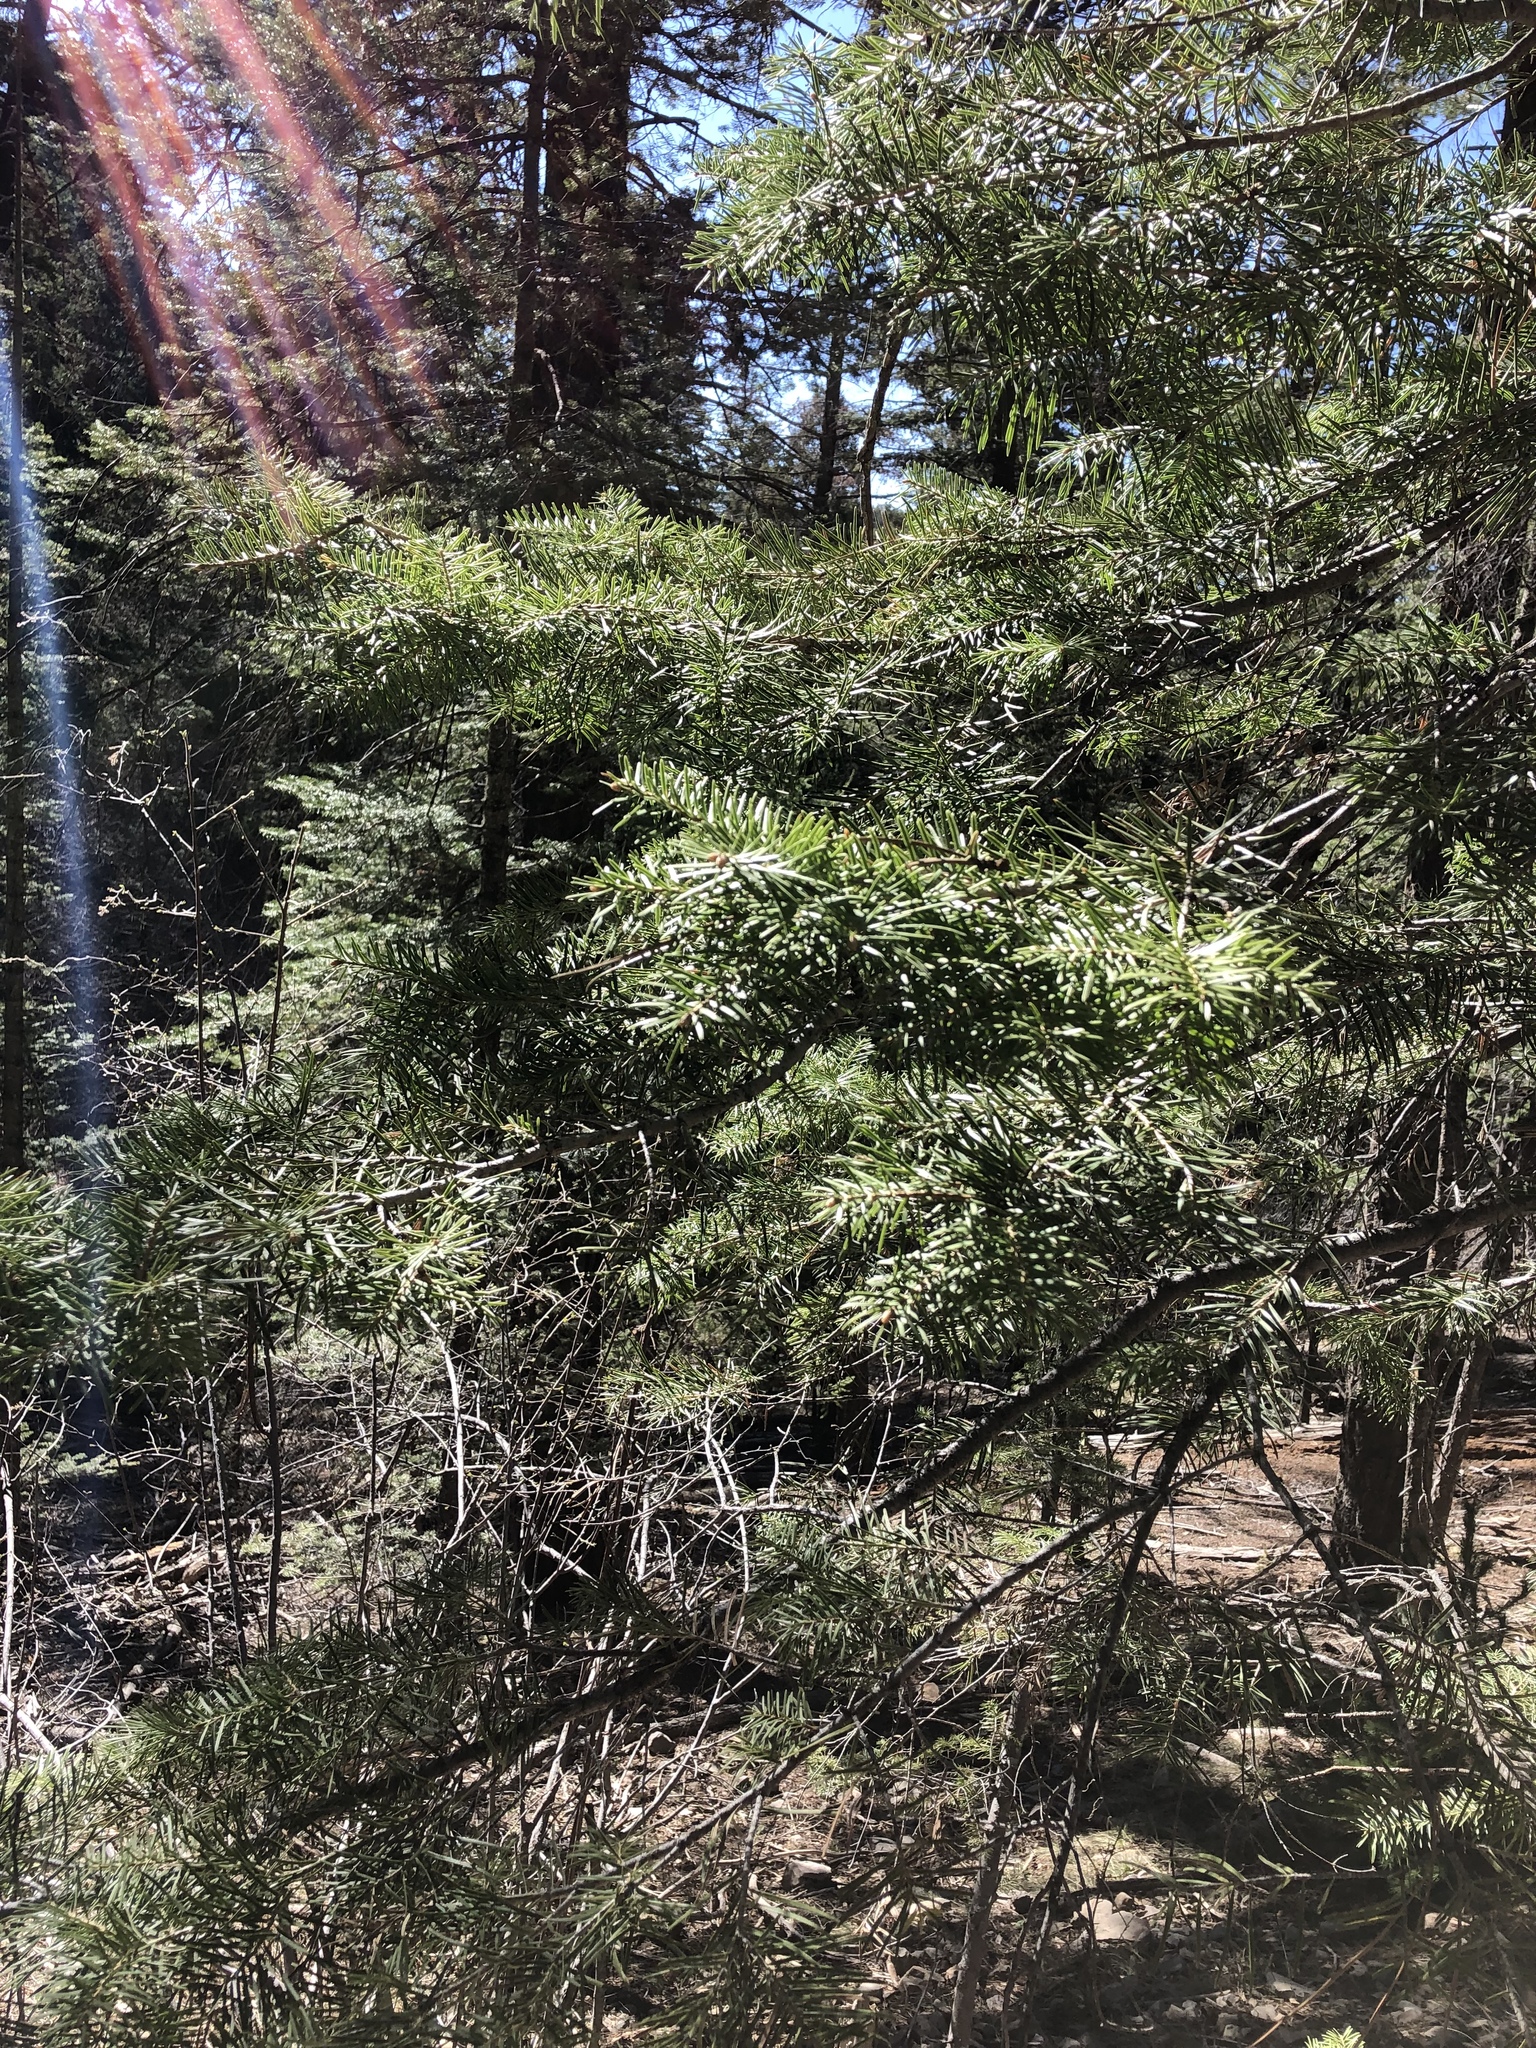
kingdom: Plantae
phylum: Tracheophyta
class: Pinopsida
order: Pinales
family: Pinaceae
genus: Abies
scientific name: Abies concolor
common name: Colorado fir
